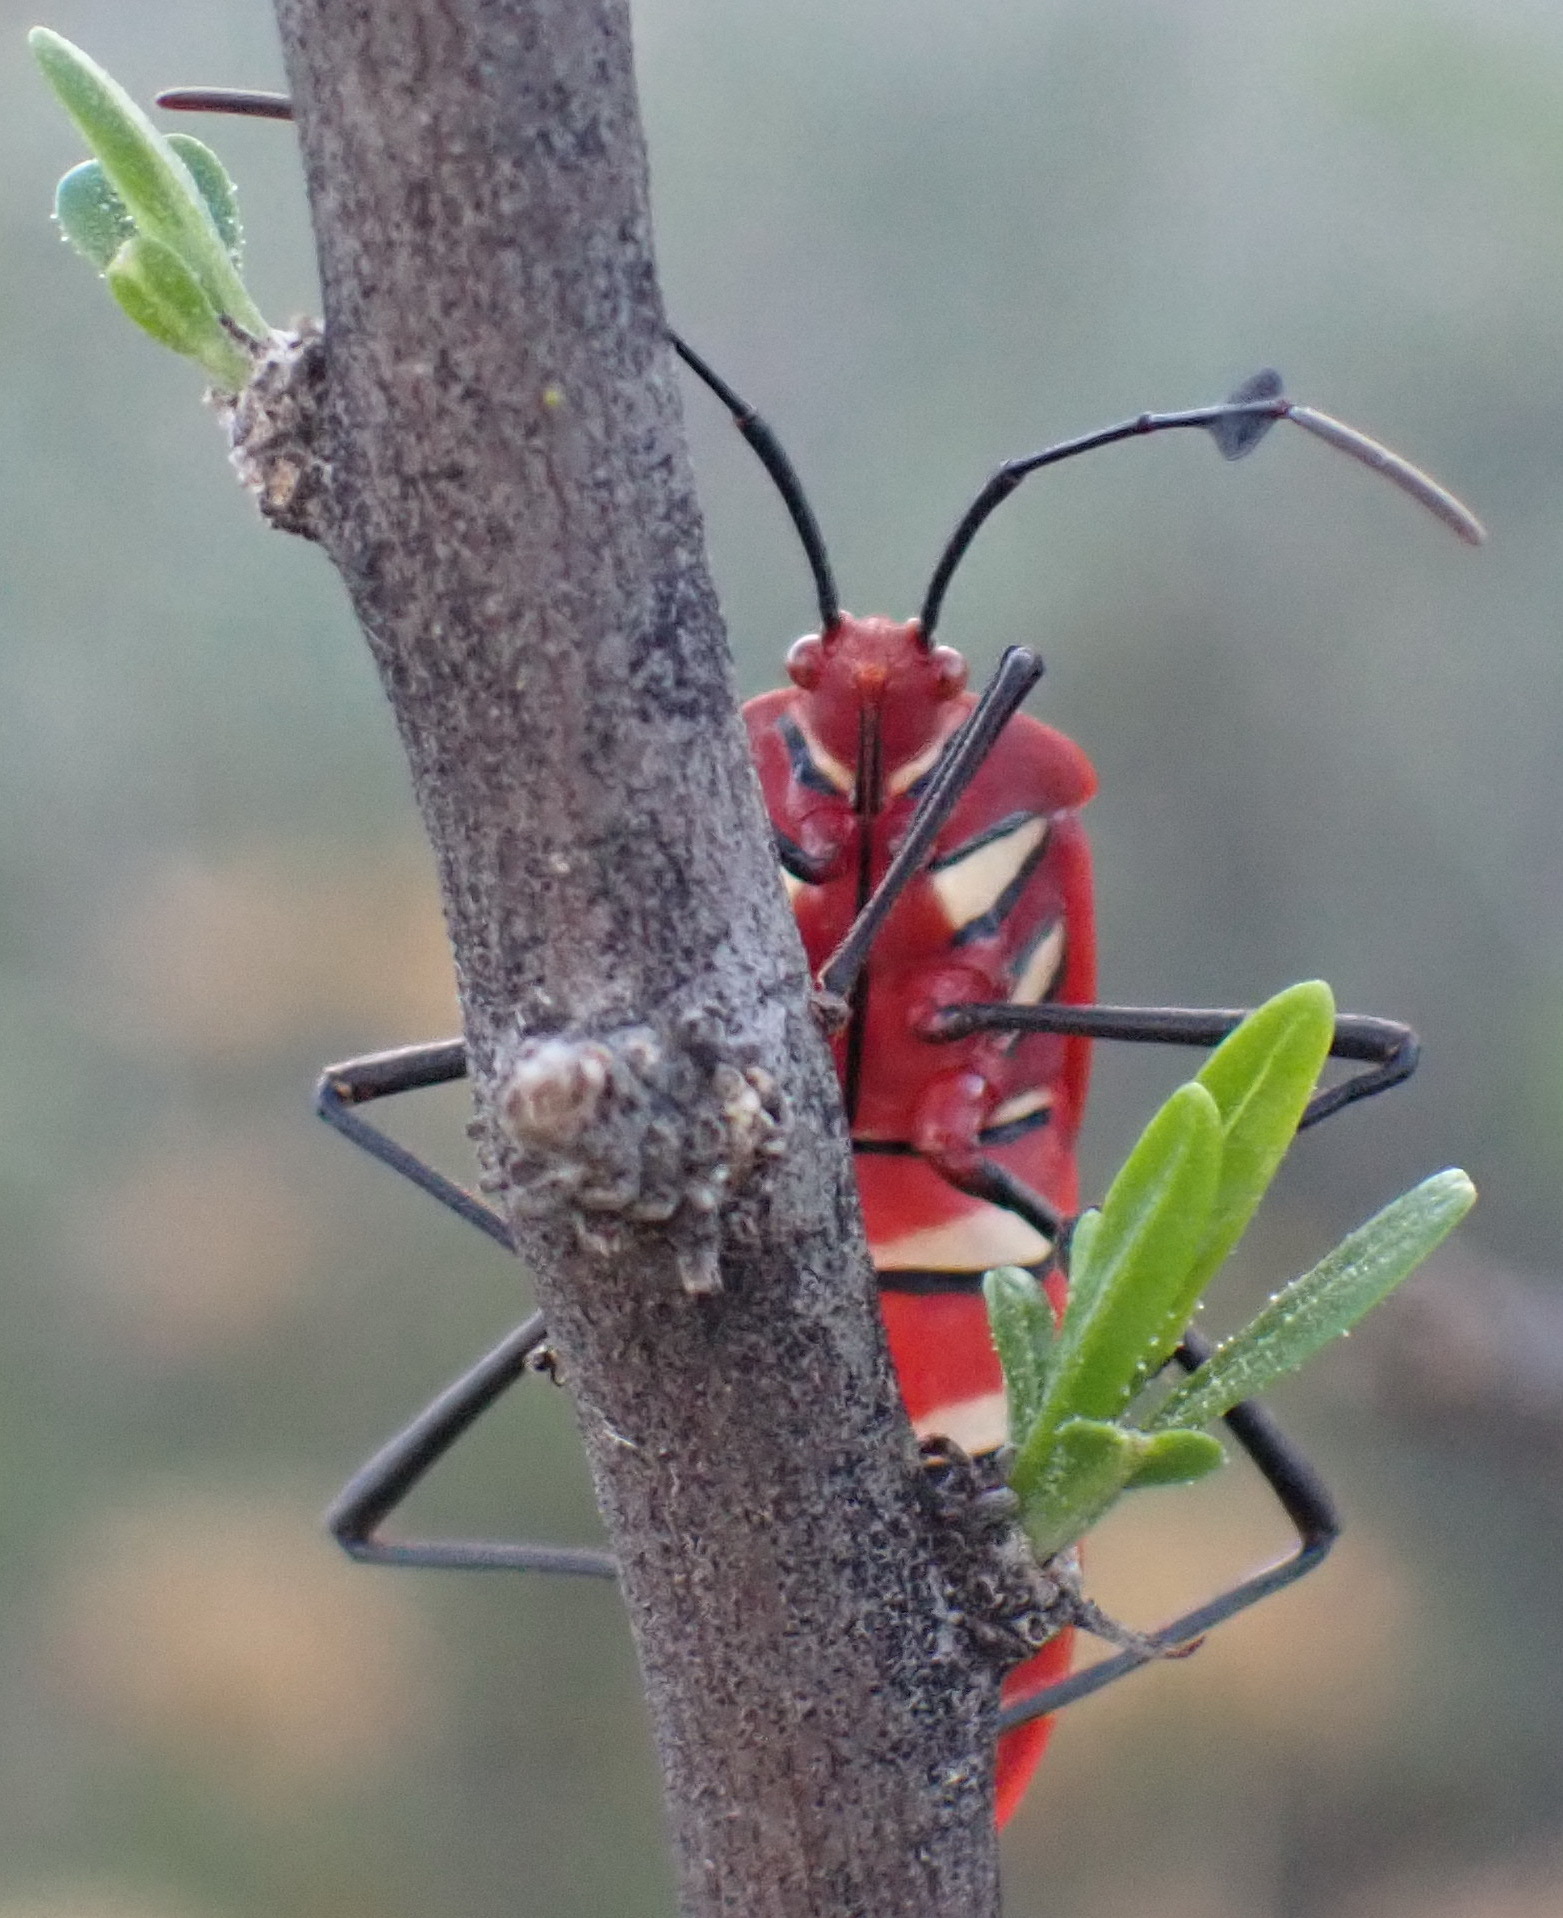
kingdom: Animalia
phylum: Arthropoda
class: Insecta
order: Hemiptera
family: Coreidae
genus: Galaesus
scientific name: Galaesus hasticornis
